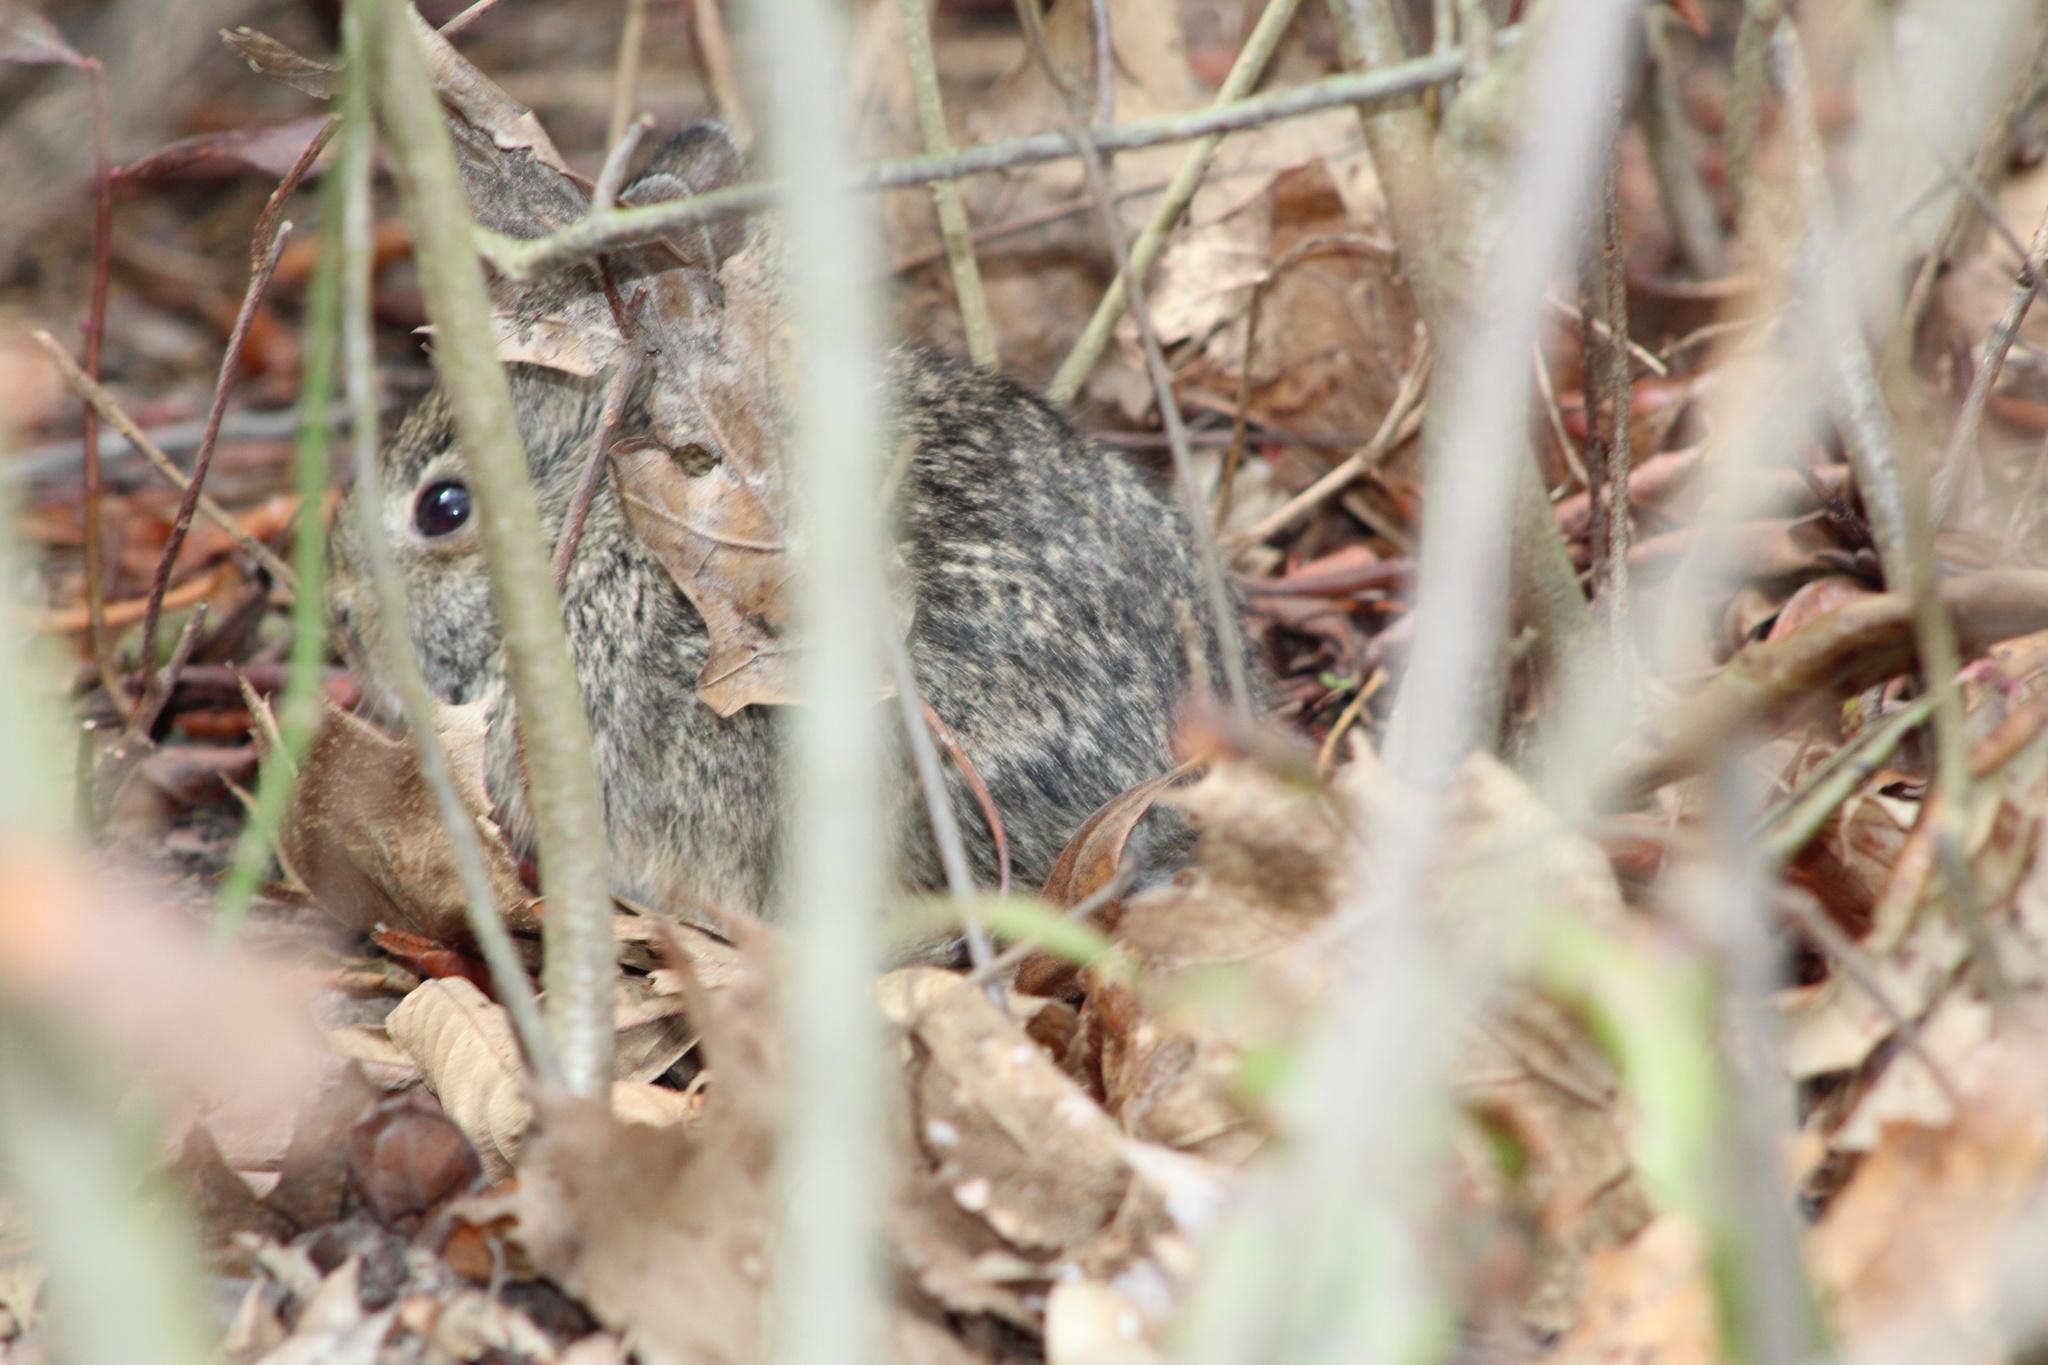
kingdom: Animalia
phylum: Chordata
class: Mammalia
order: Lagomorpha
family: Leporidae
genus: Sylvilagus
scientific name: Sylvilagus floridanus
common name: Eastern cottontail
